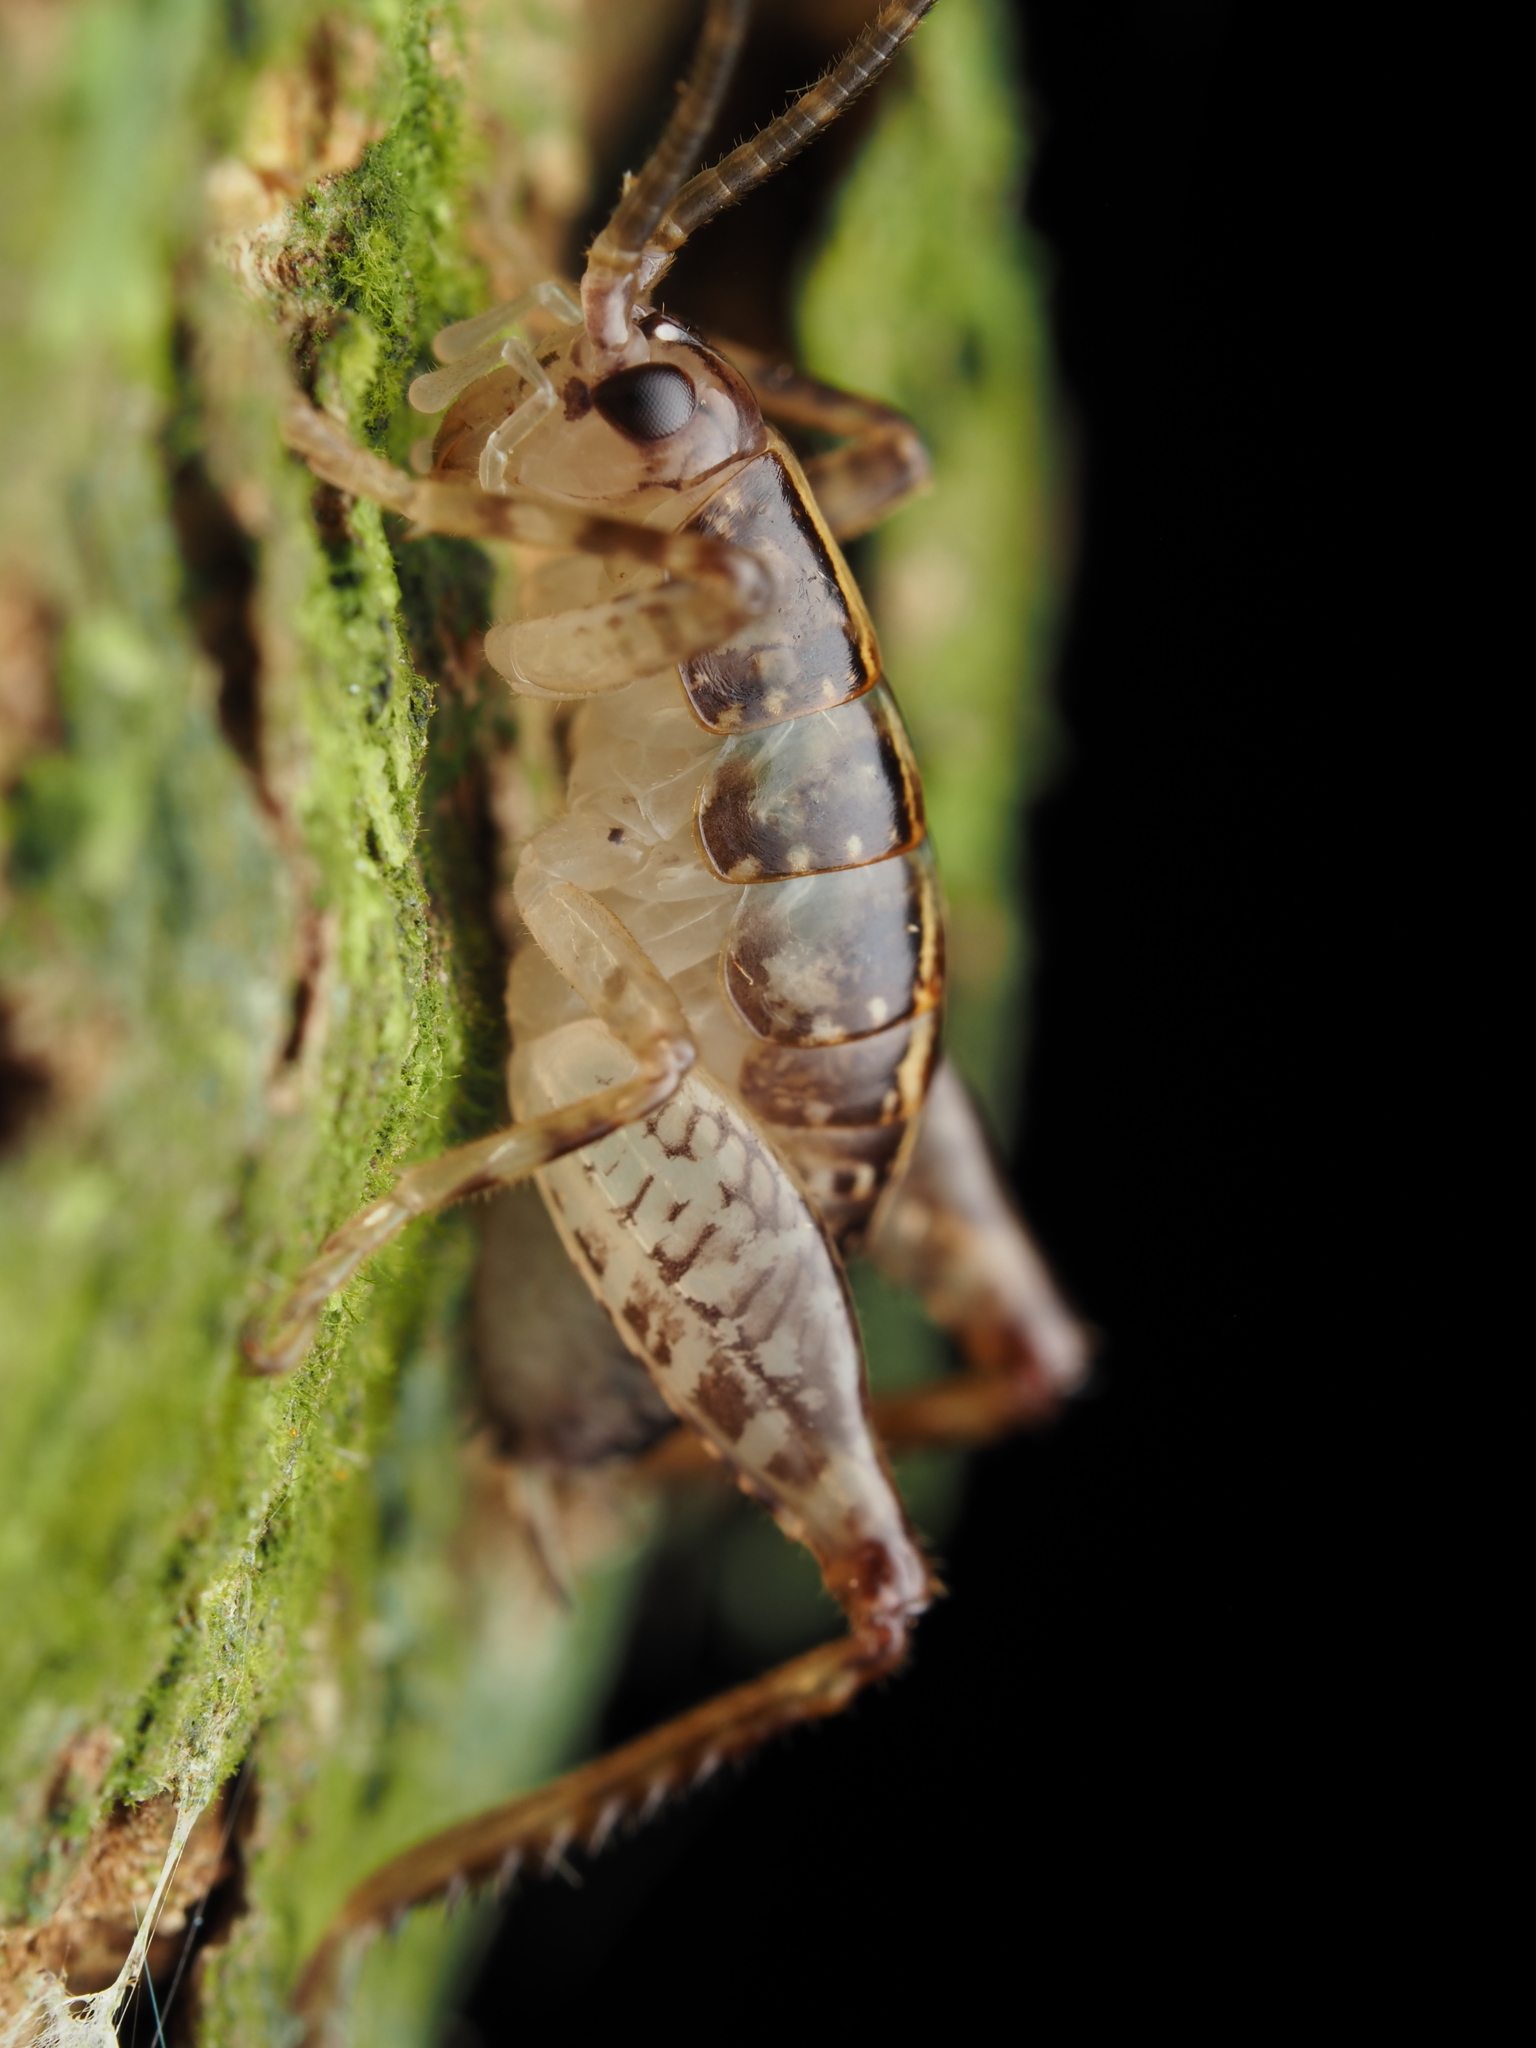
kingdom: Animalia
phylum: Arthropoda
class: Insecta
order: Orthoptera
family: Rhaphidophoridae
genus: Talitropsis
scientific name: Talitropsis sedilloti
